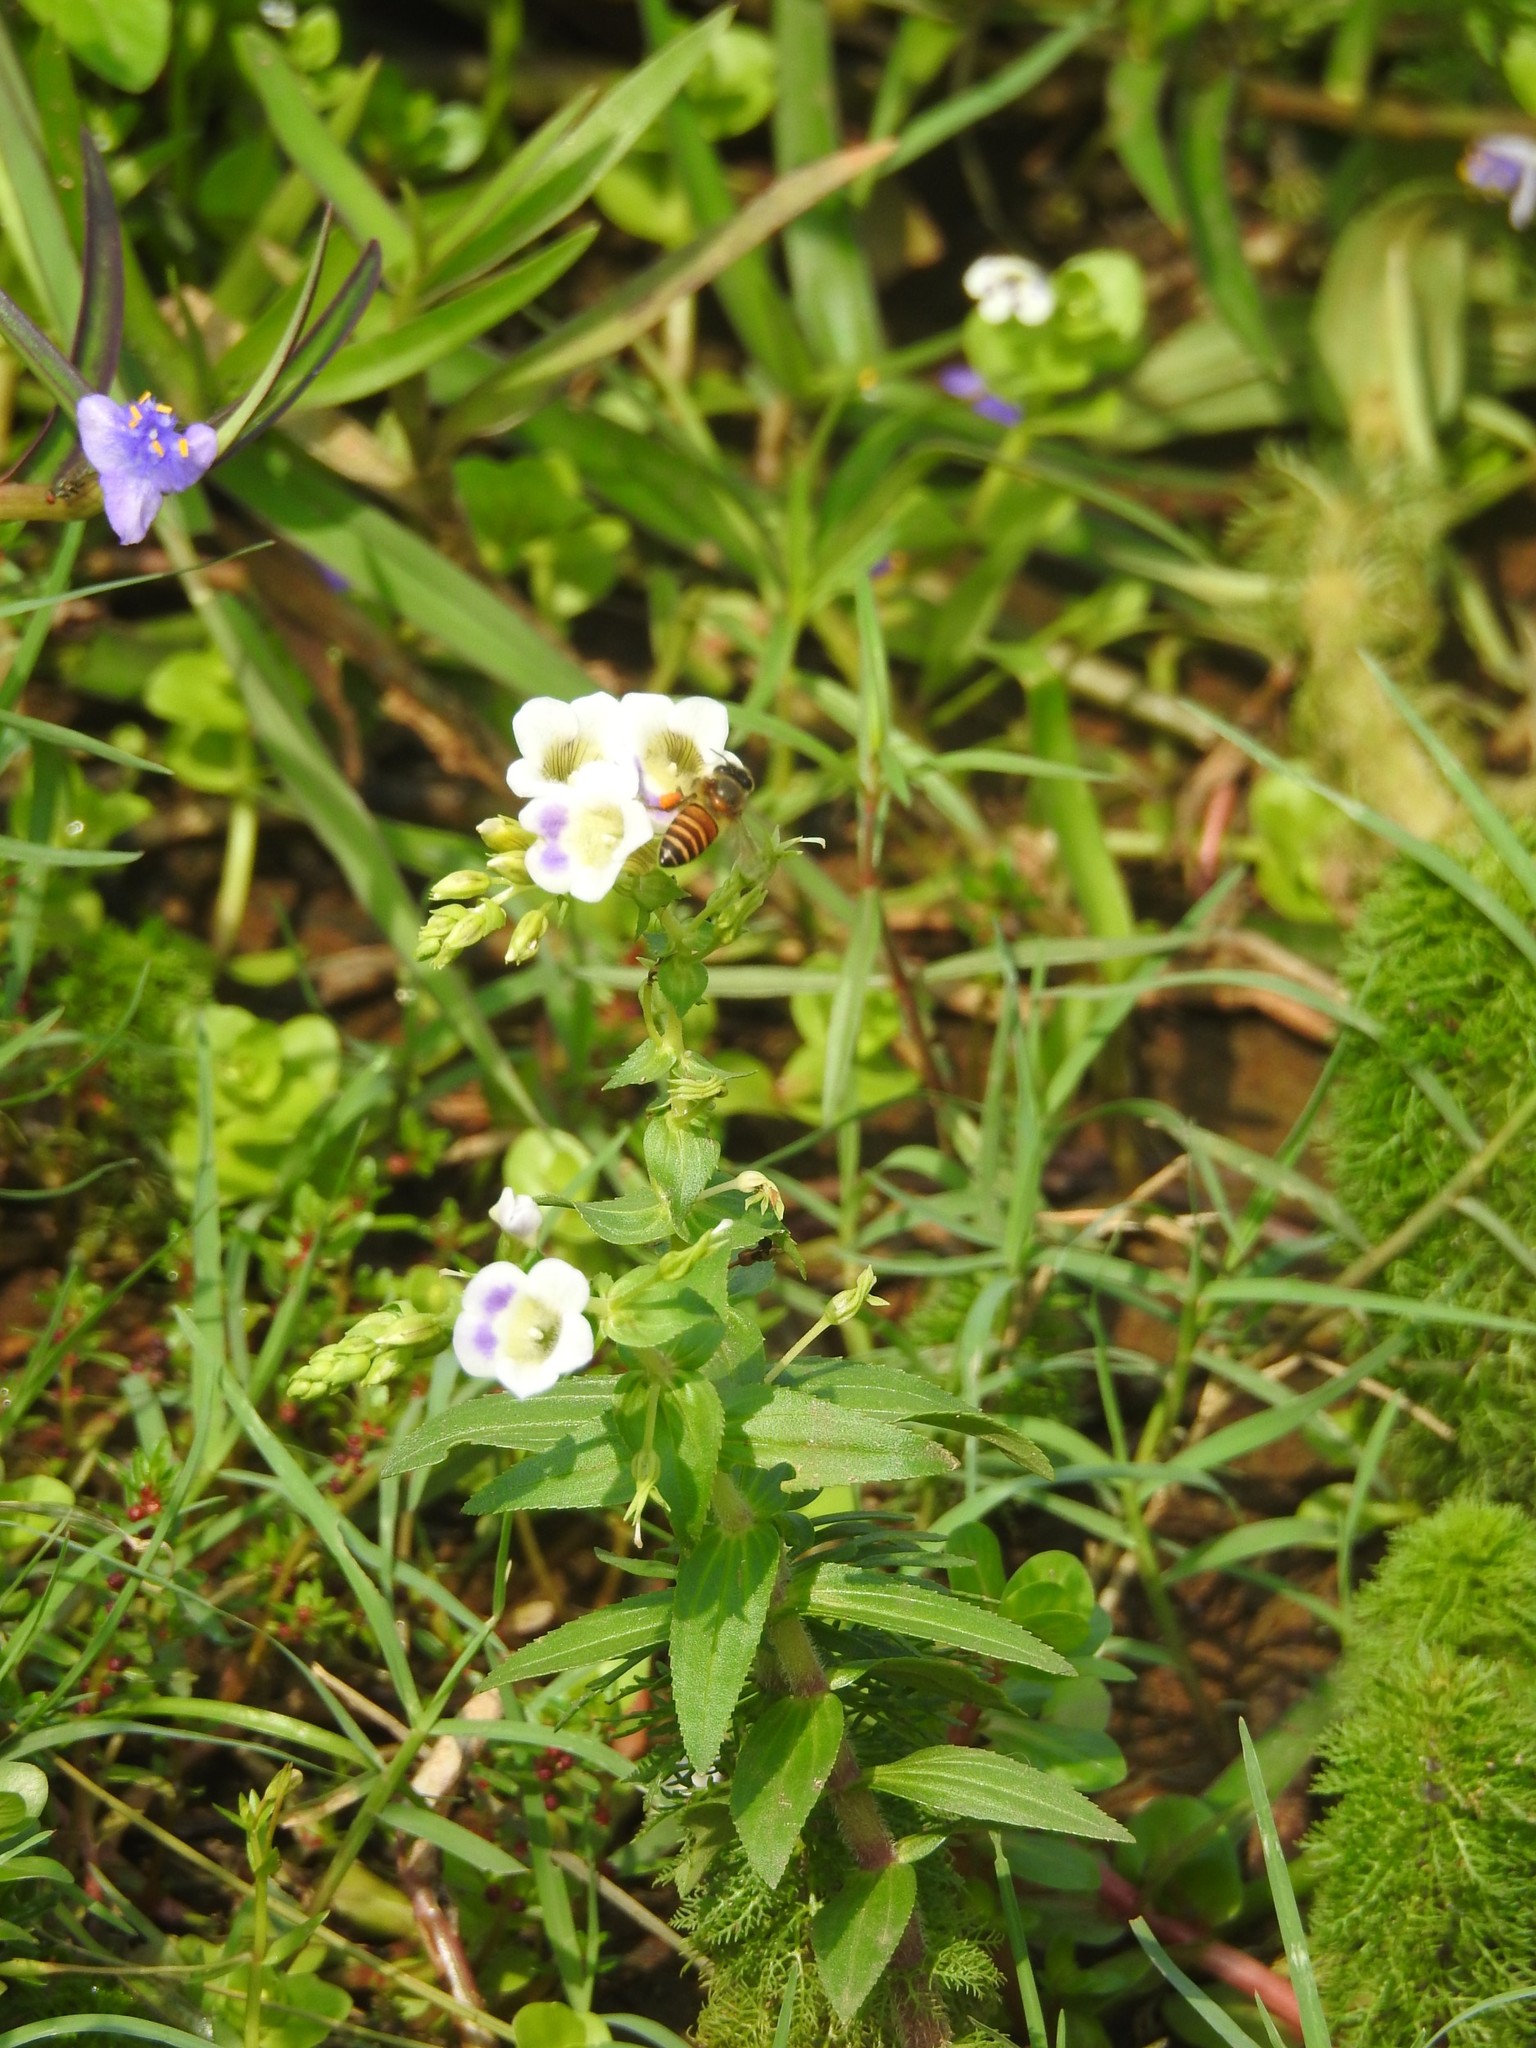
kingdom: Animalia
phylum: Arthropoda
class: Insecta
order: Hymenoptera
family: Apidae
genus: Apis
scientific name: Apis cerana
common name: Honey bee
